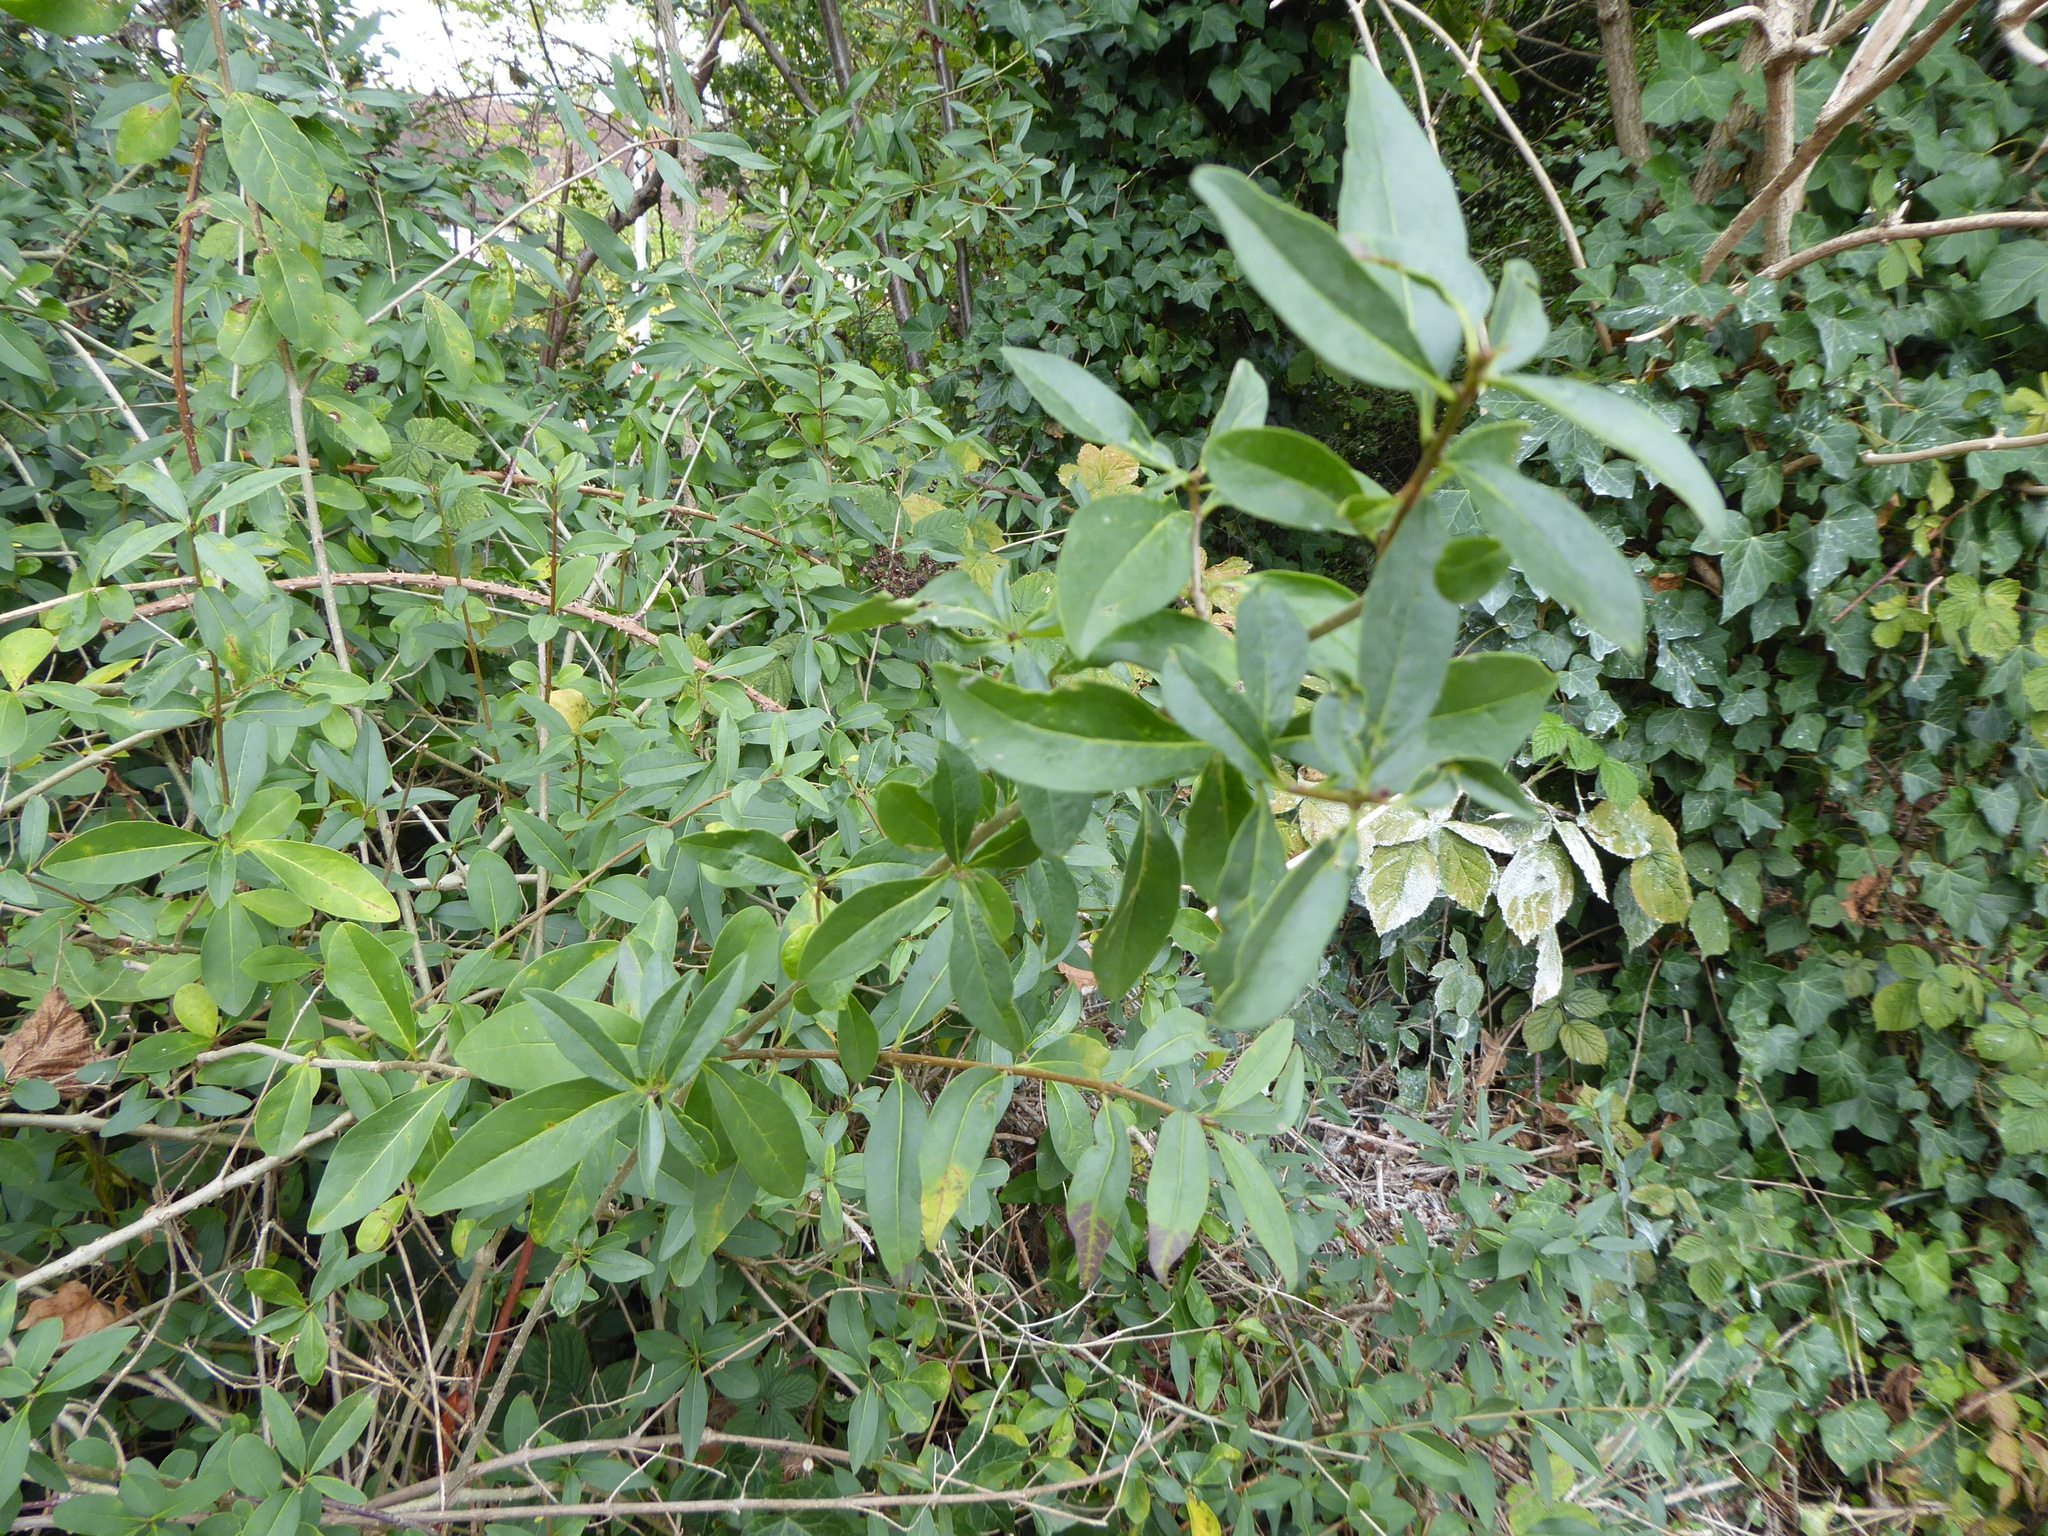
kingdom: Plantae
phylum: Tracheophyta
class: Magnoliopsida
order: Lamiales
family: Oleaceae
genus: Ligustrum
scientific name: Ligustrum vulgare
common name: Wild privet
